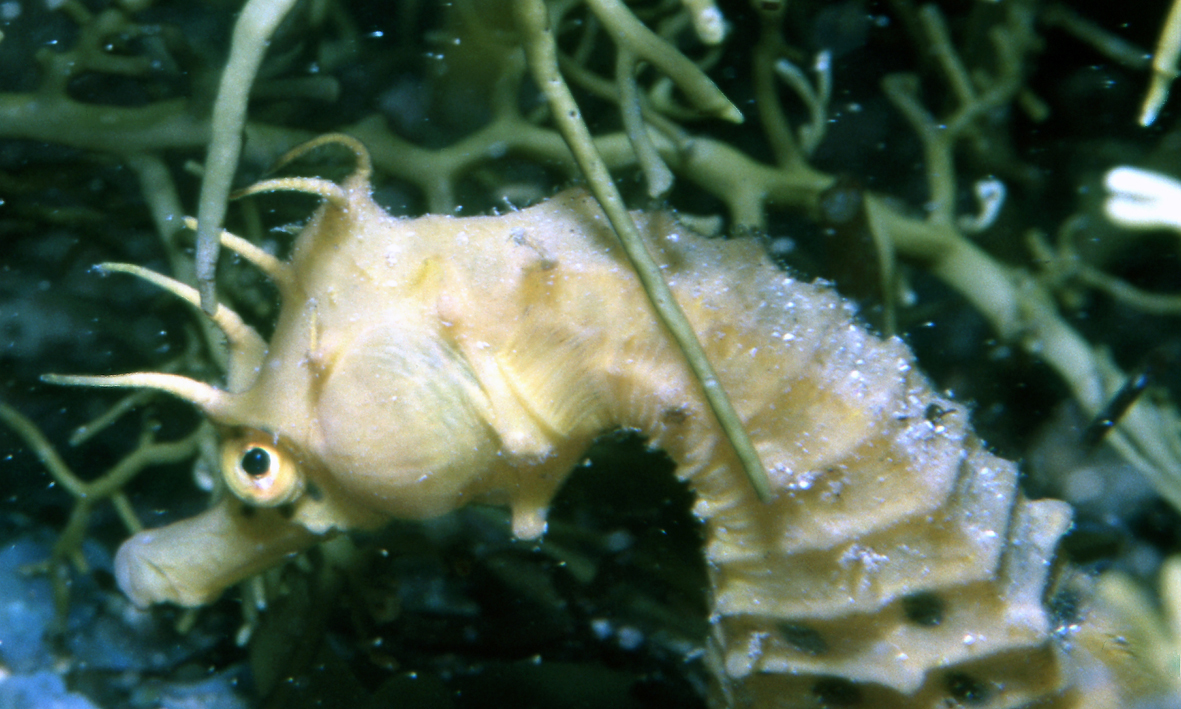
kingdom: Animalia
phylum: Chordata
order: Syngnathiformes
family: Syngnathidae
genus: Hippocampus
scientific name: Hippocampus abdominalis
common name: Big-belly seahorse
